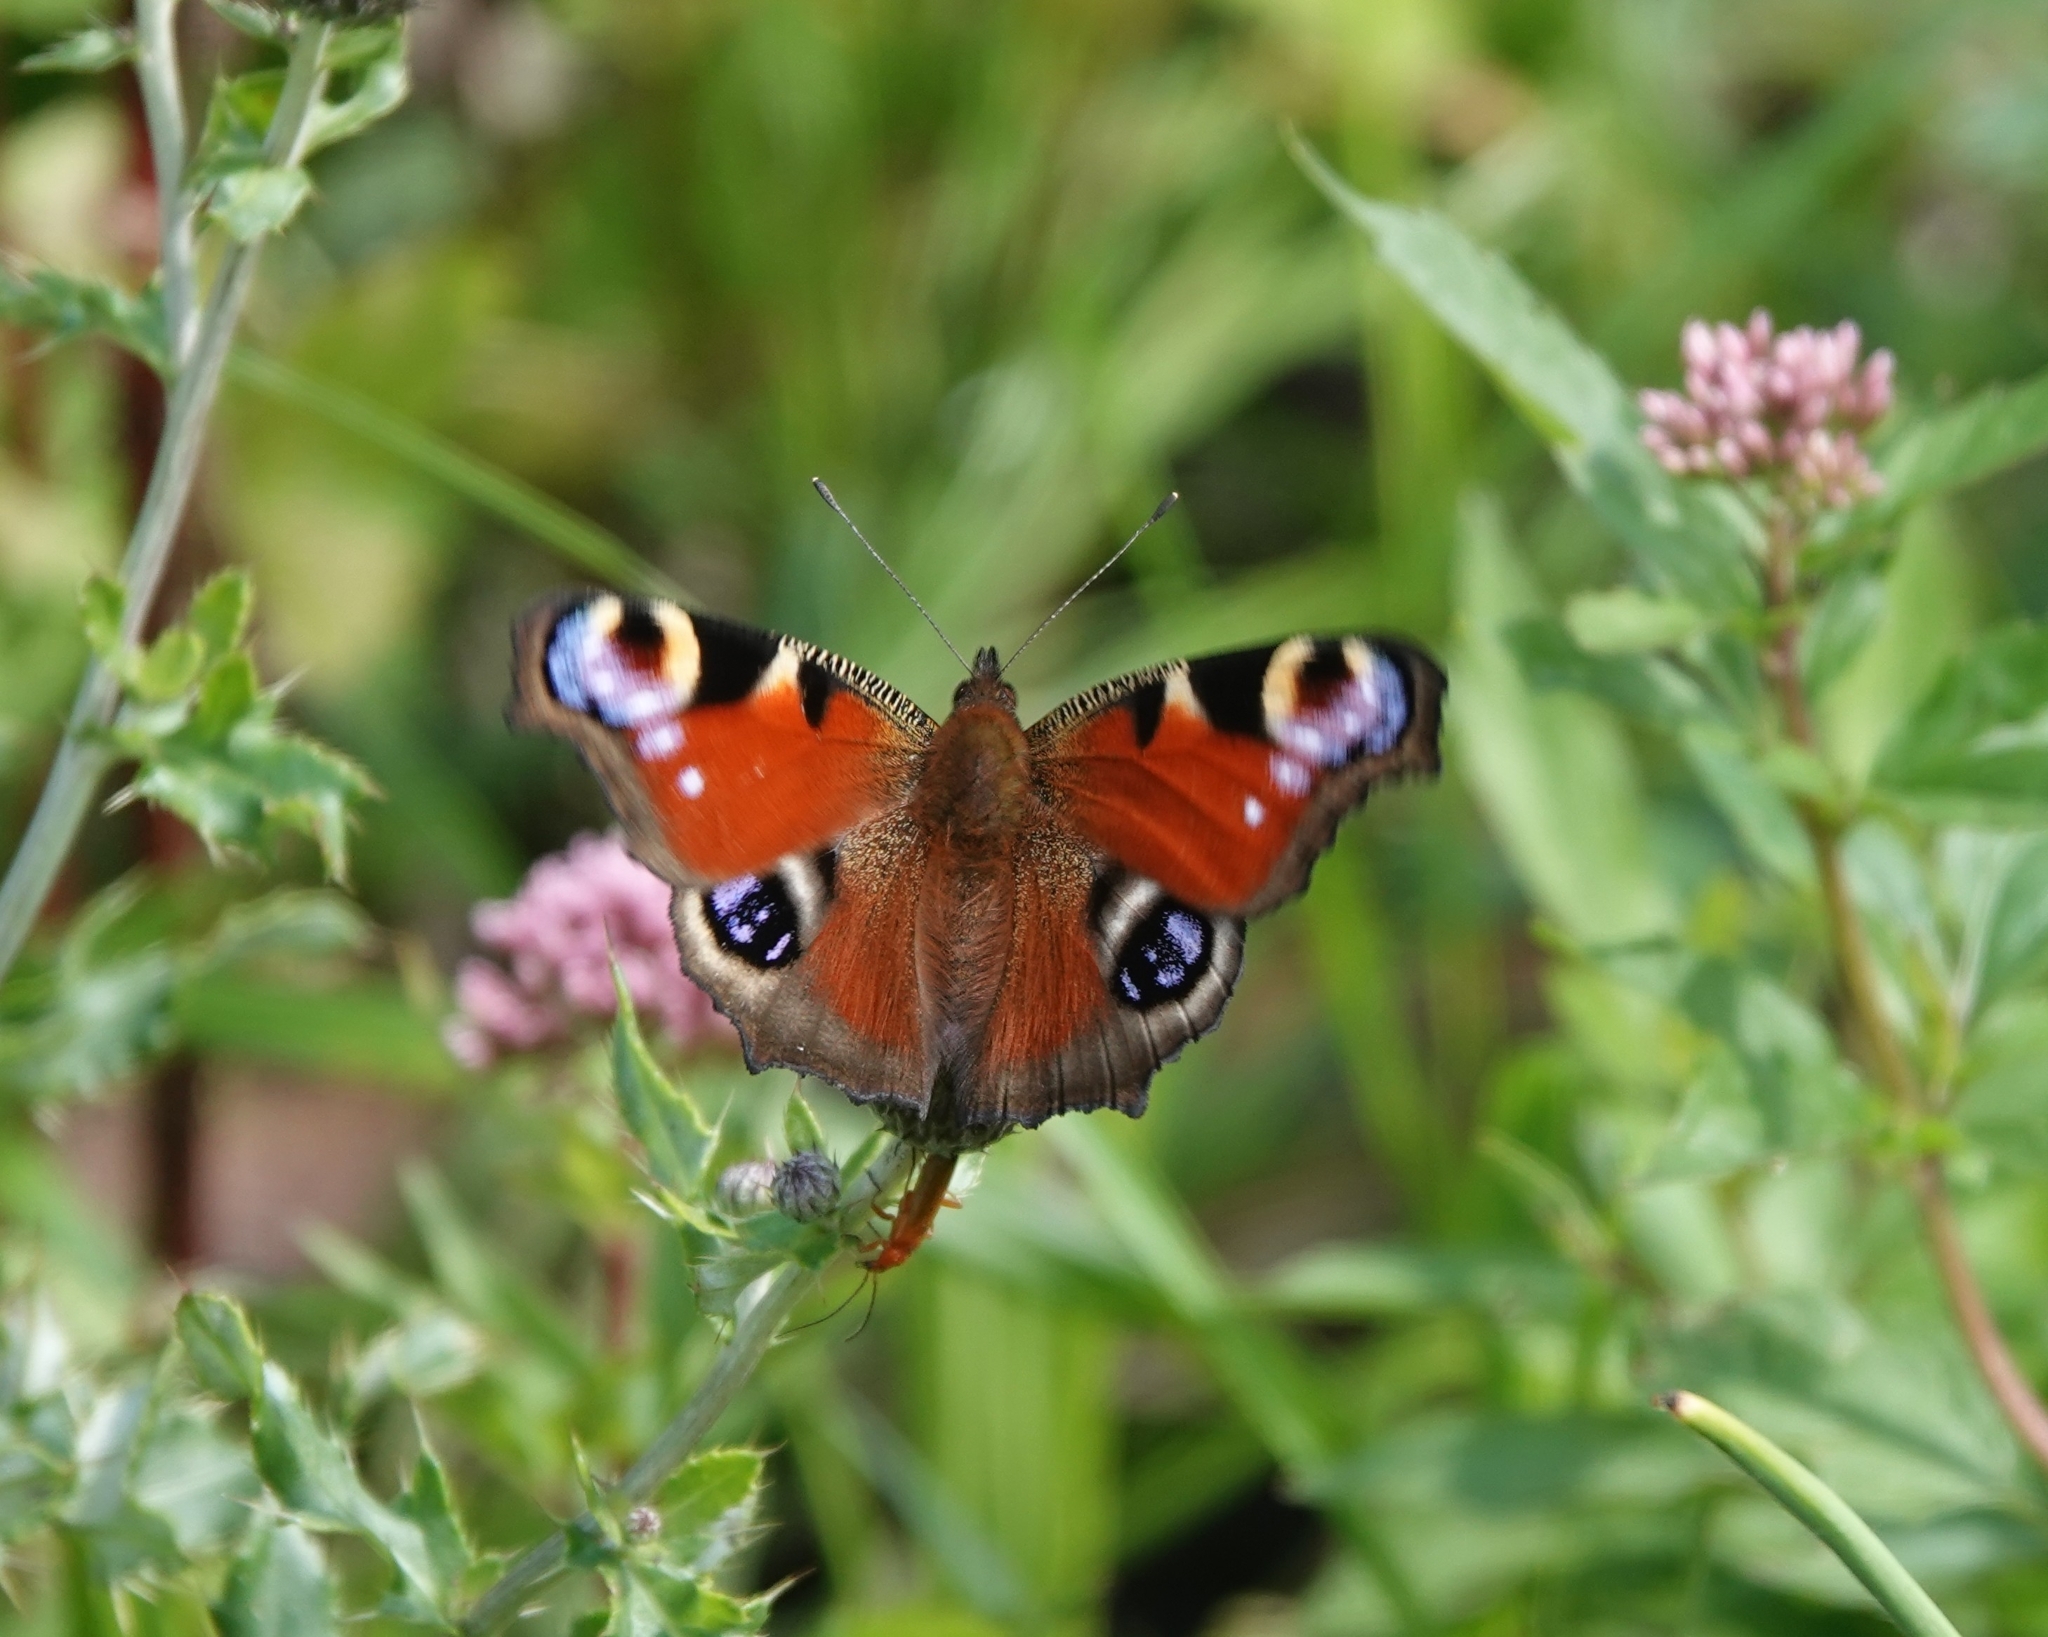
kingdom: Animalia
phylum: Arthropoda
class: Insecta
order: Lepidoptera
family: Nymphalidae
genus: Aglais
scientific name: Aglais io
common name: Peacock
